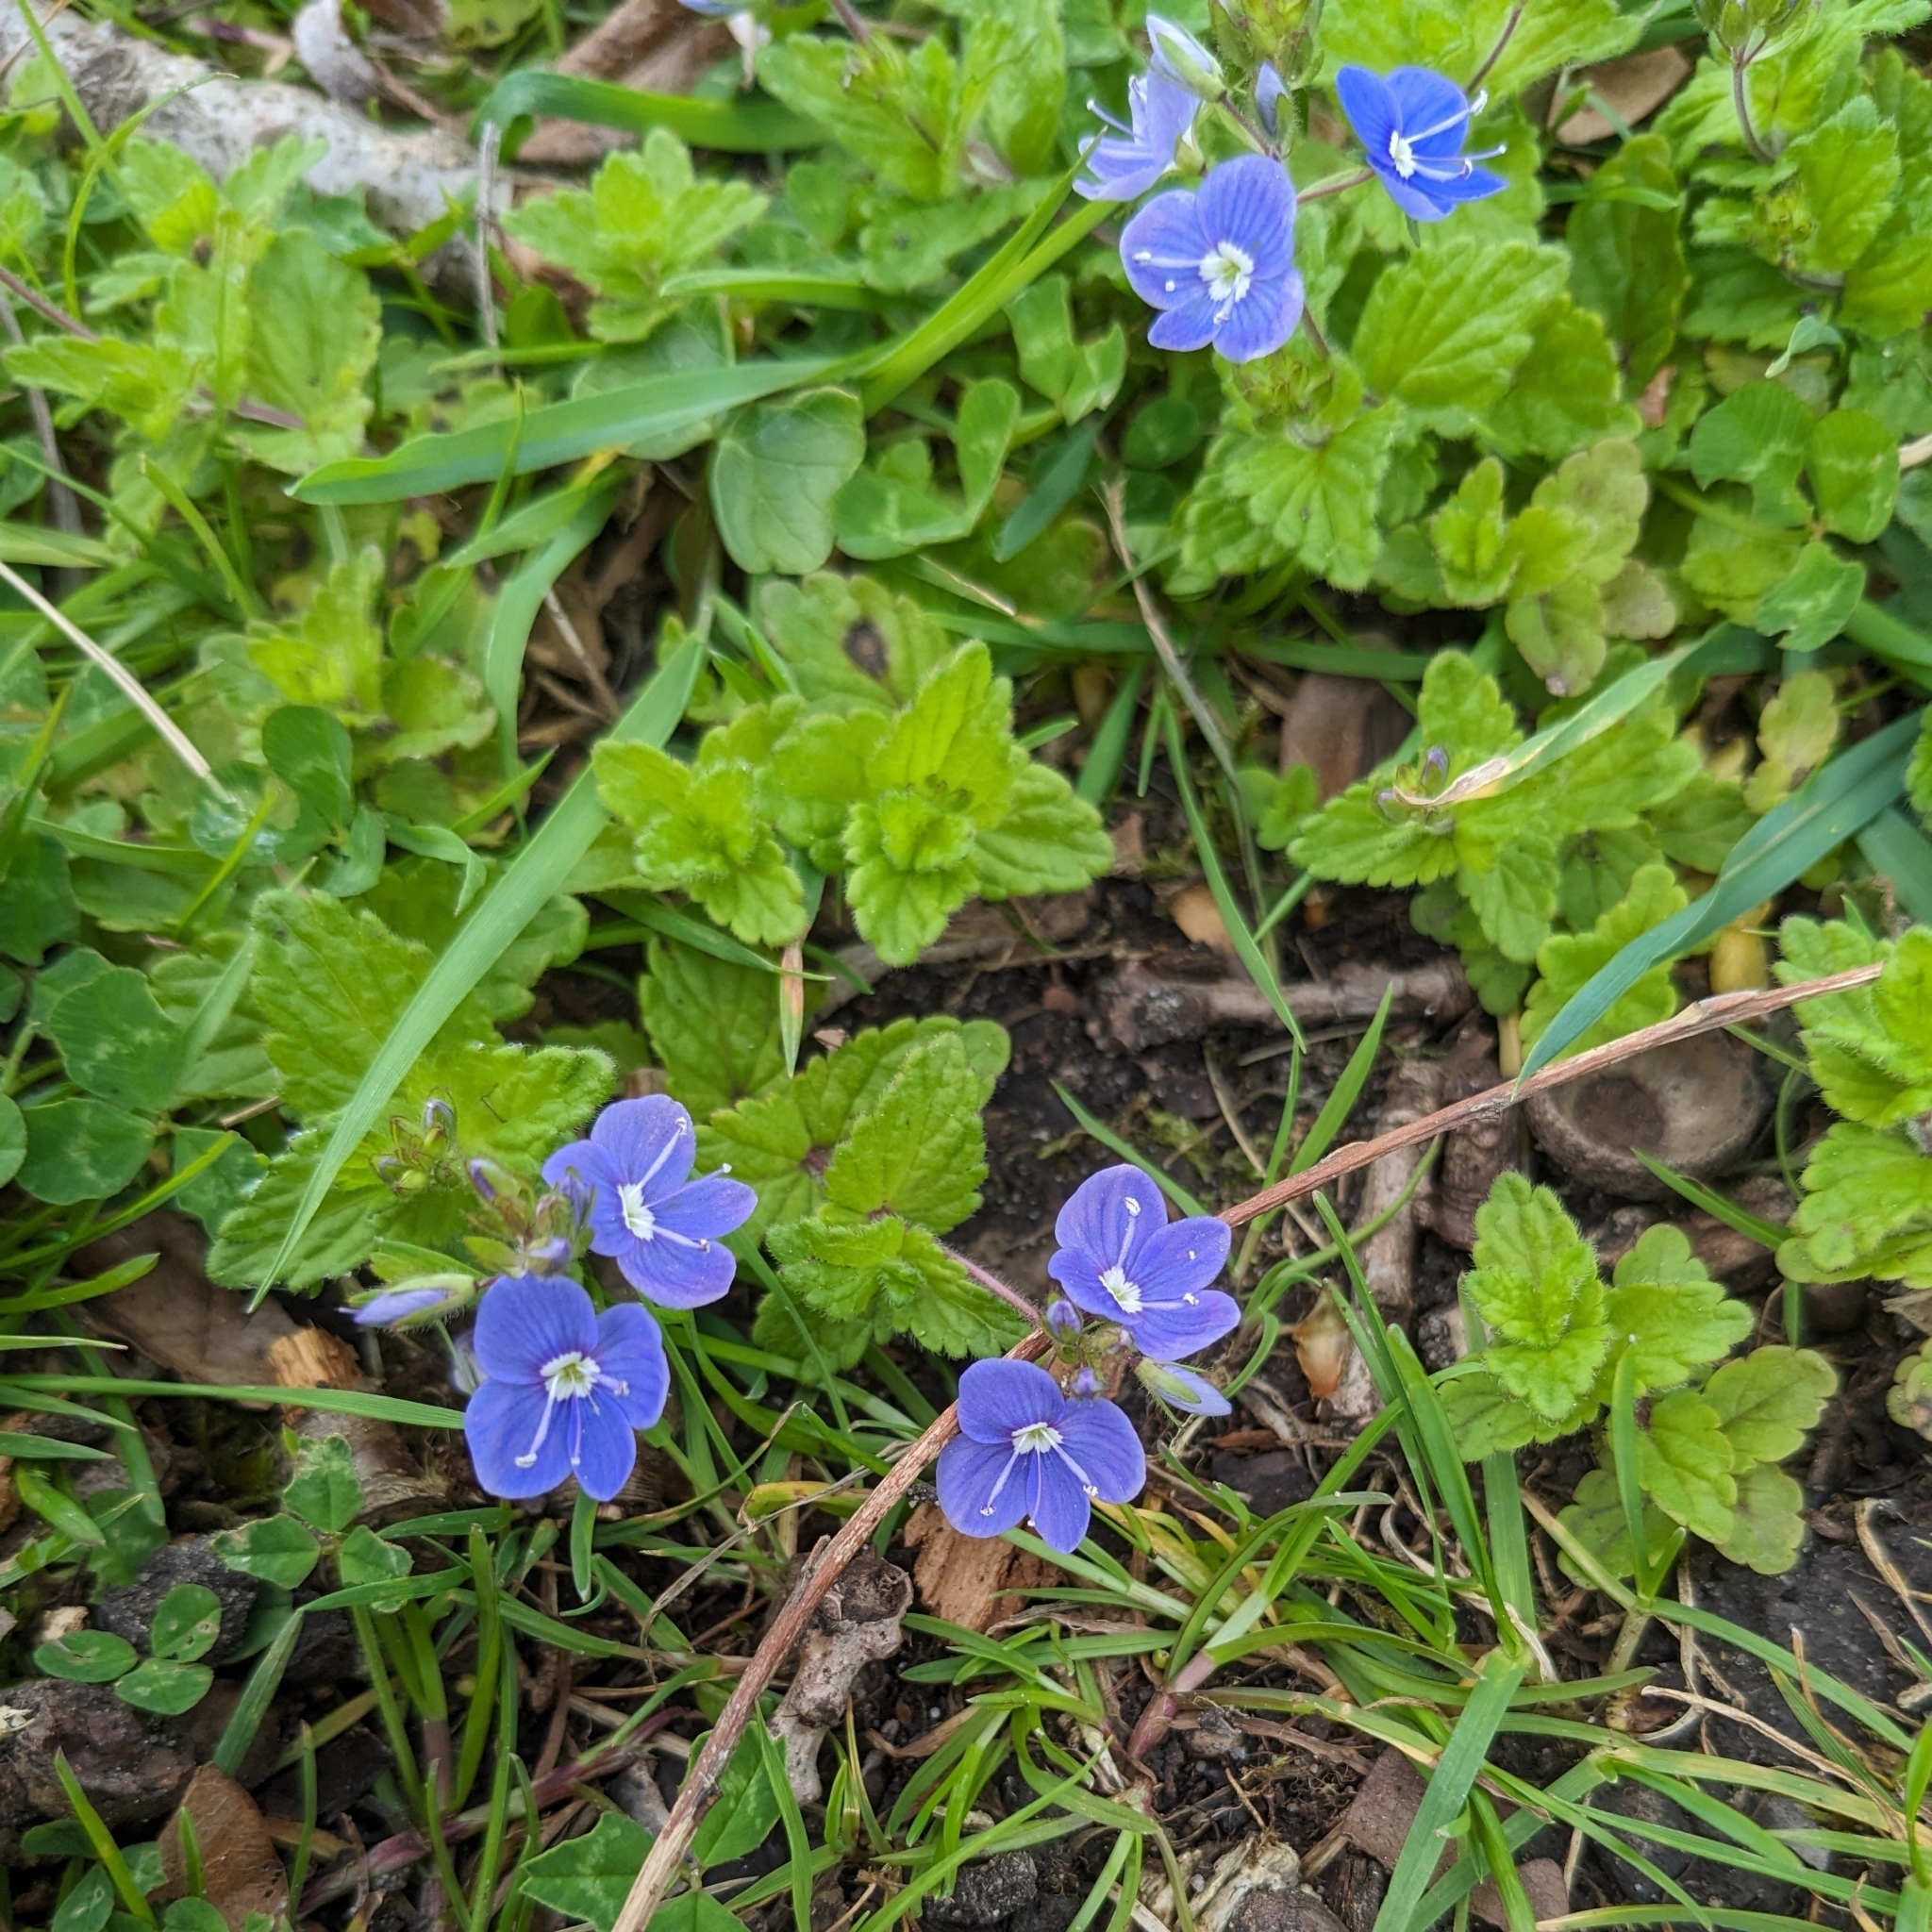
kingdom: Plantae
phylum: Tracheophyta
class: Magnoliopsida
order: Lamiales
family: Plantaginaceae
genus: Veronica
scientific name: Veronica chamaedrys
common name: Germander speedwell
